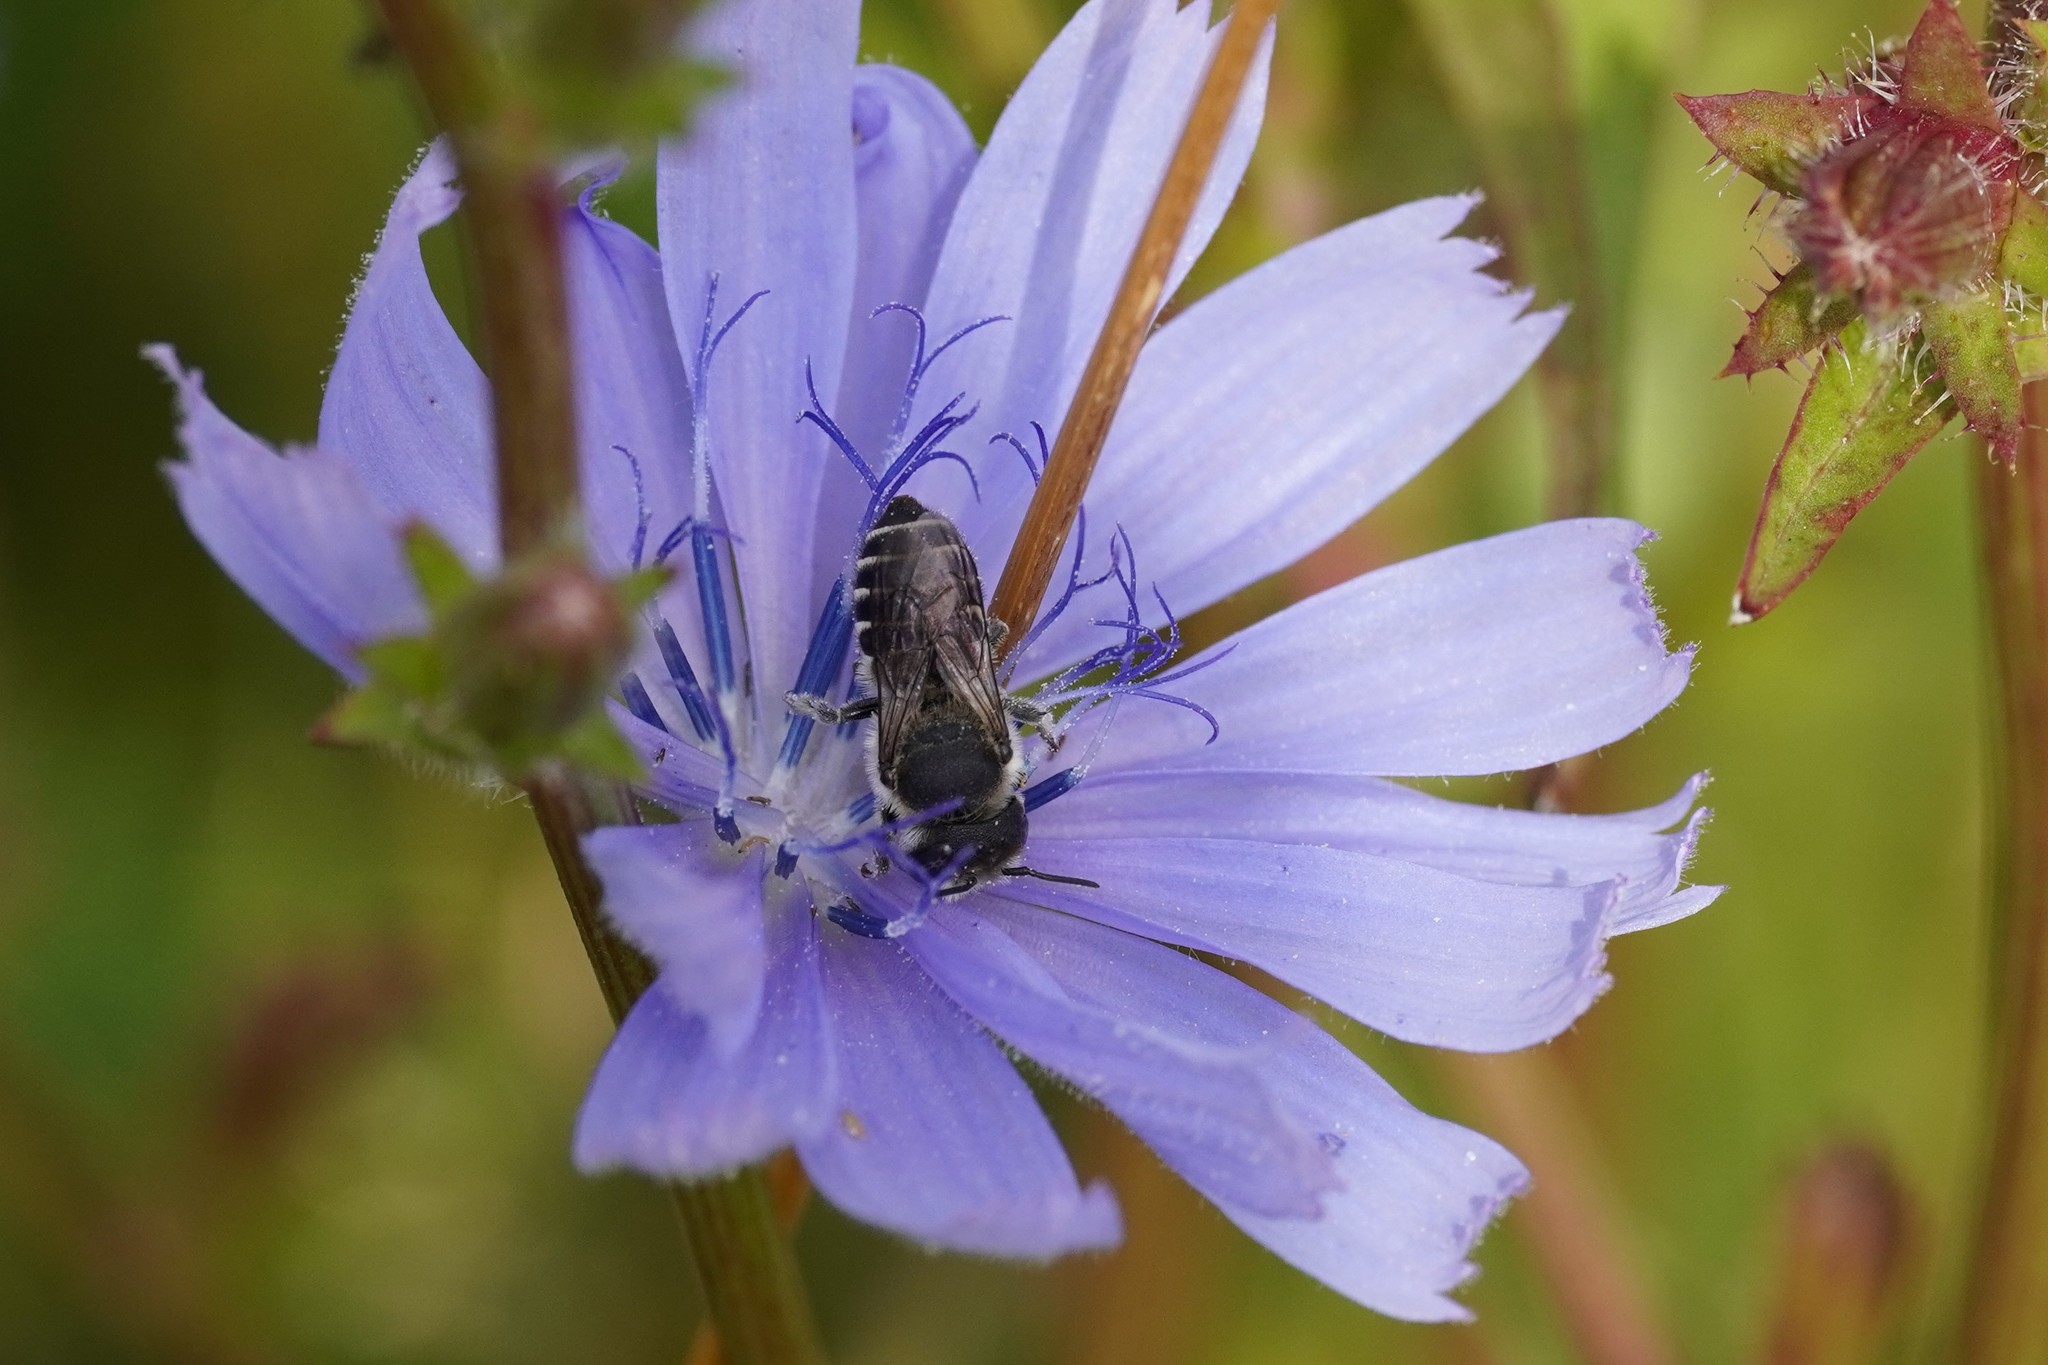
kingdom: Animalia
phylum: Arthropoda
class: Insecta
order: Hymenoptera
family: Megachilidae
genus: Megachile
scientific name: Megachile rotundata
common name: Alfalfa leafcutting bee
